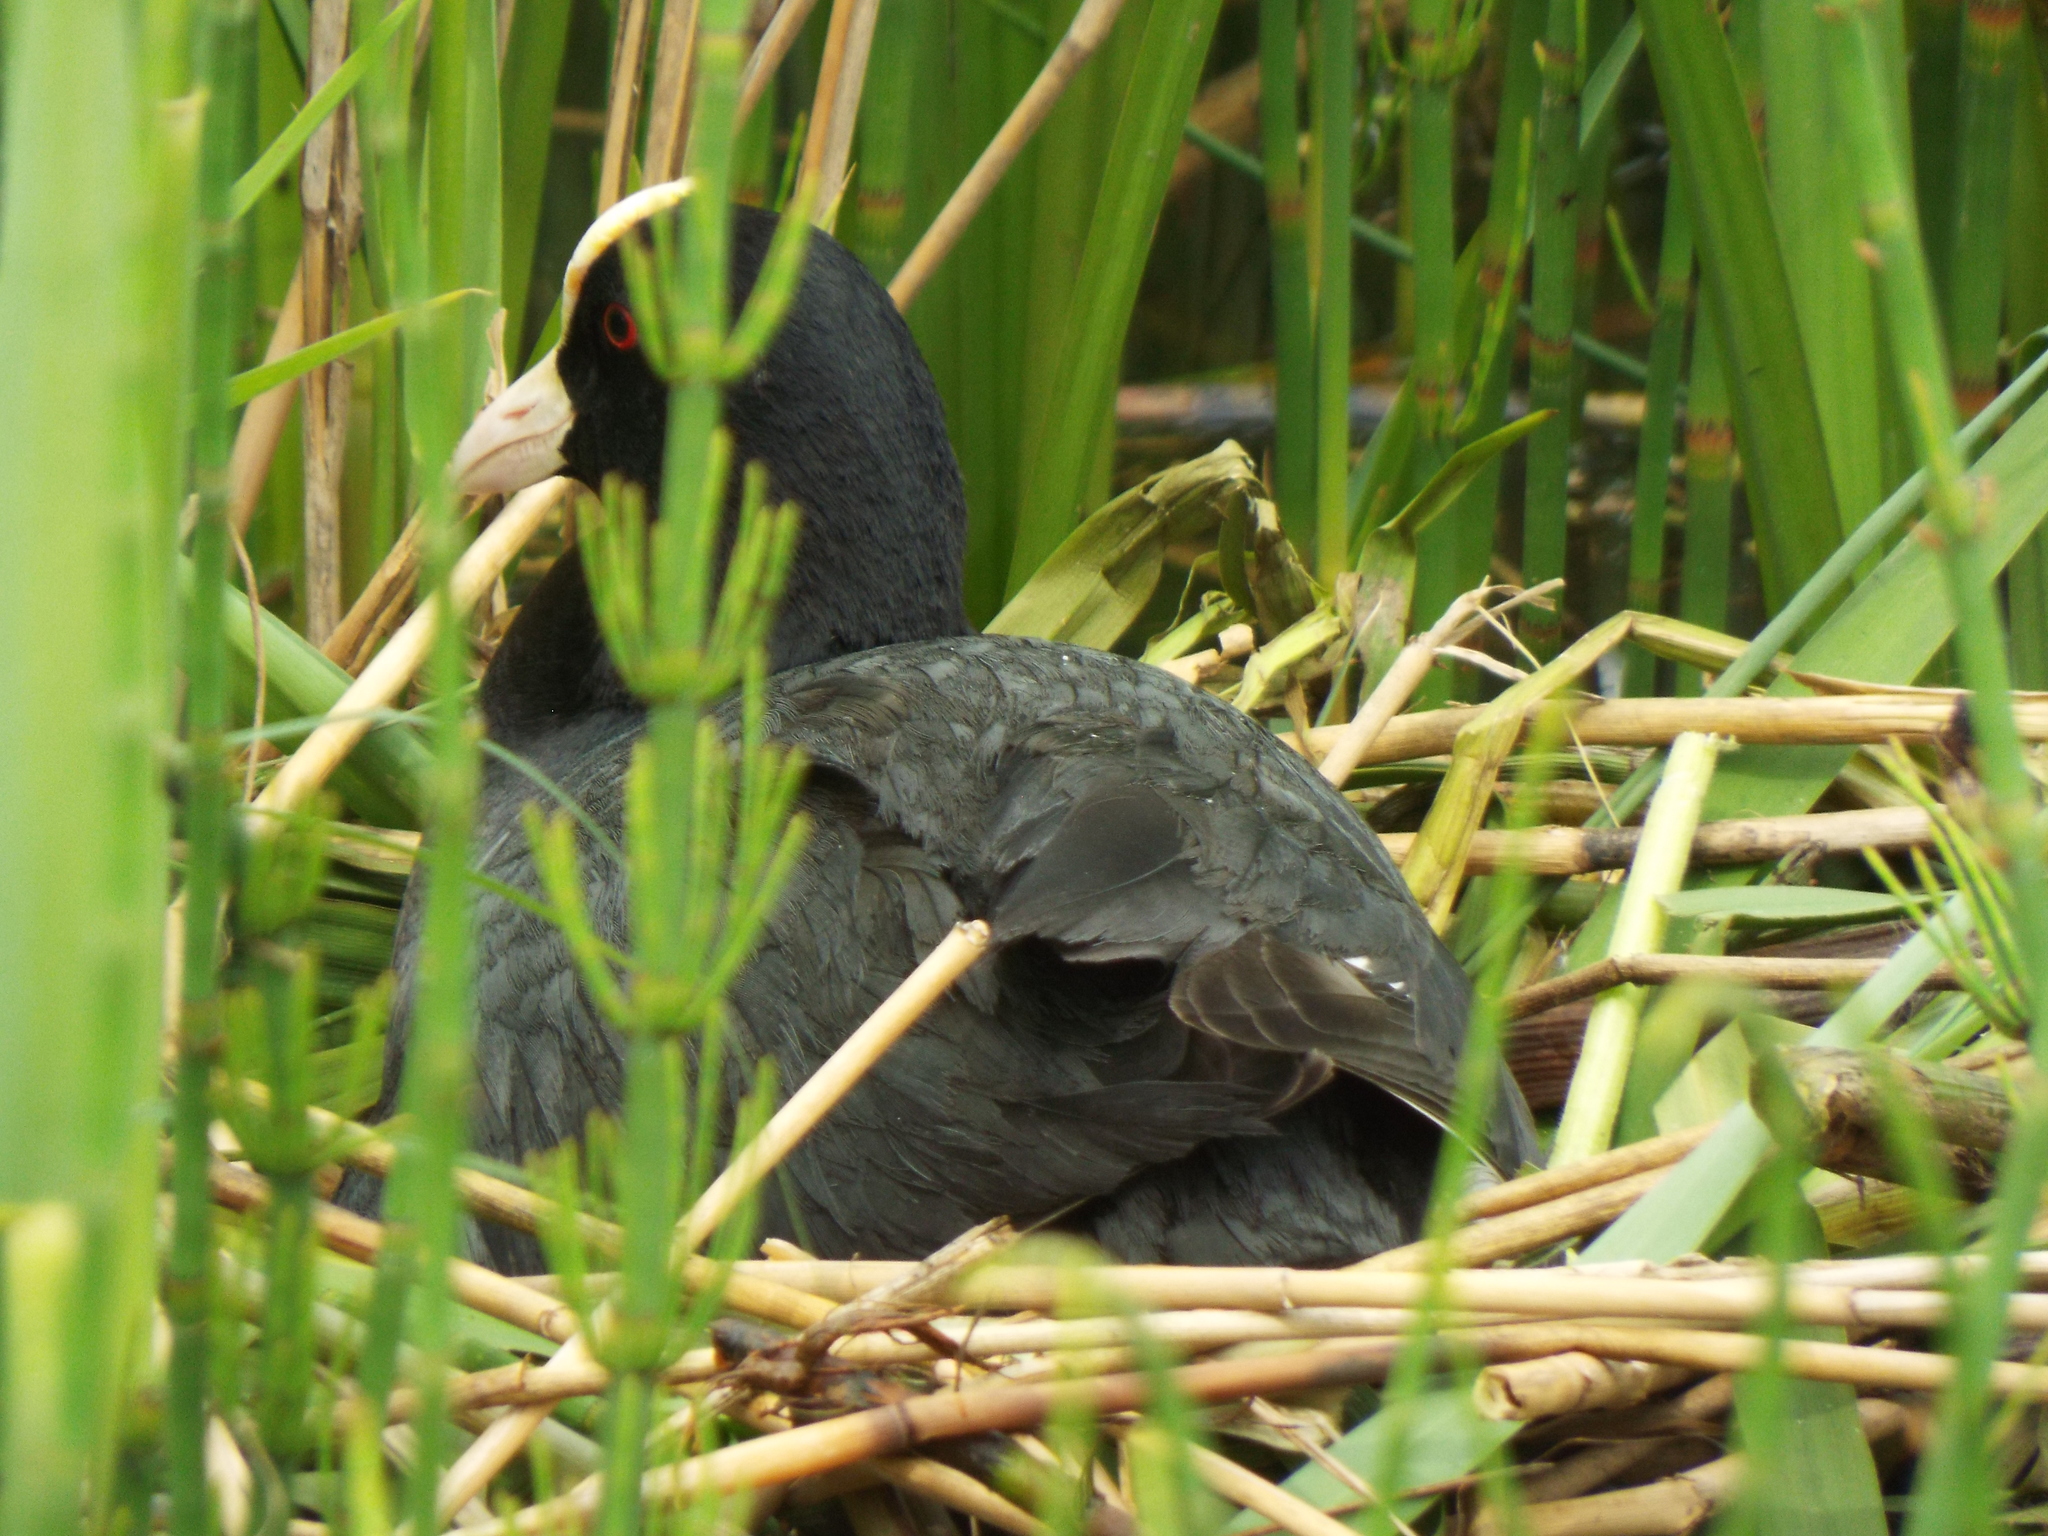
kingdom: Animalia
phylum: Chordata
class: Aves
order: Gruiformes
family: Rallidae
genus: Fulica
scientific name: Fulica atra
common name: Eurasian coot
